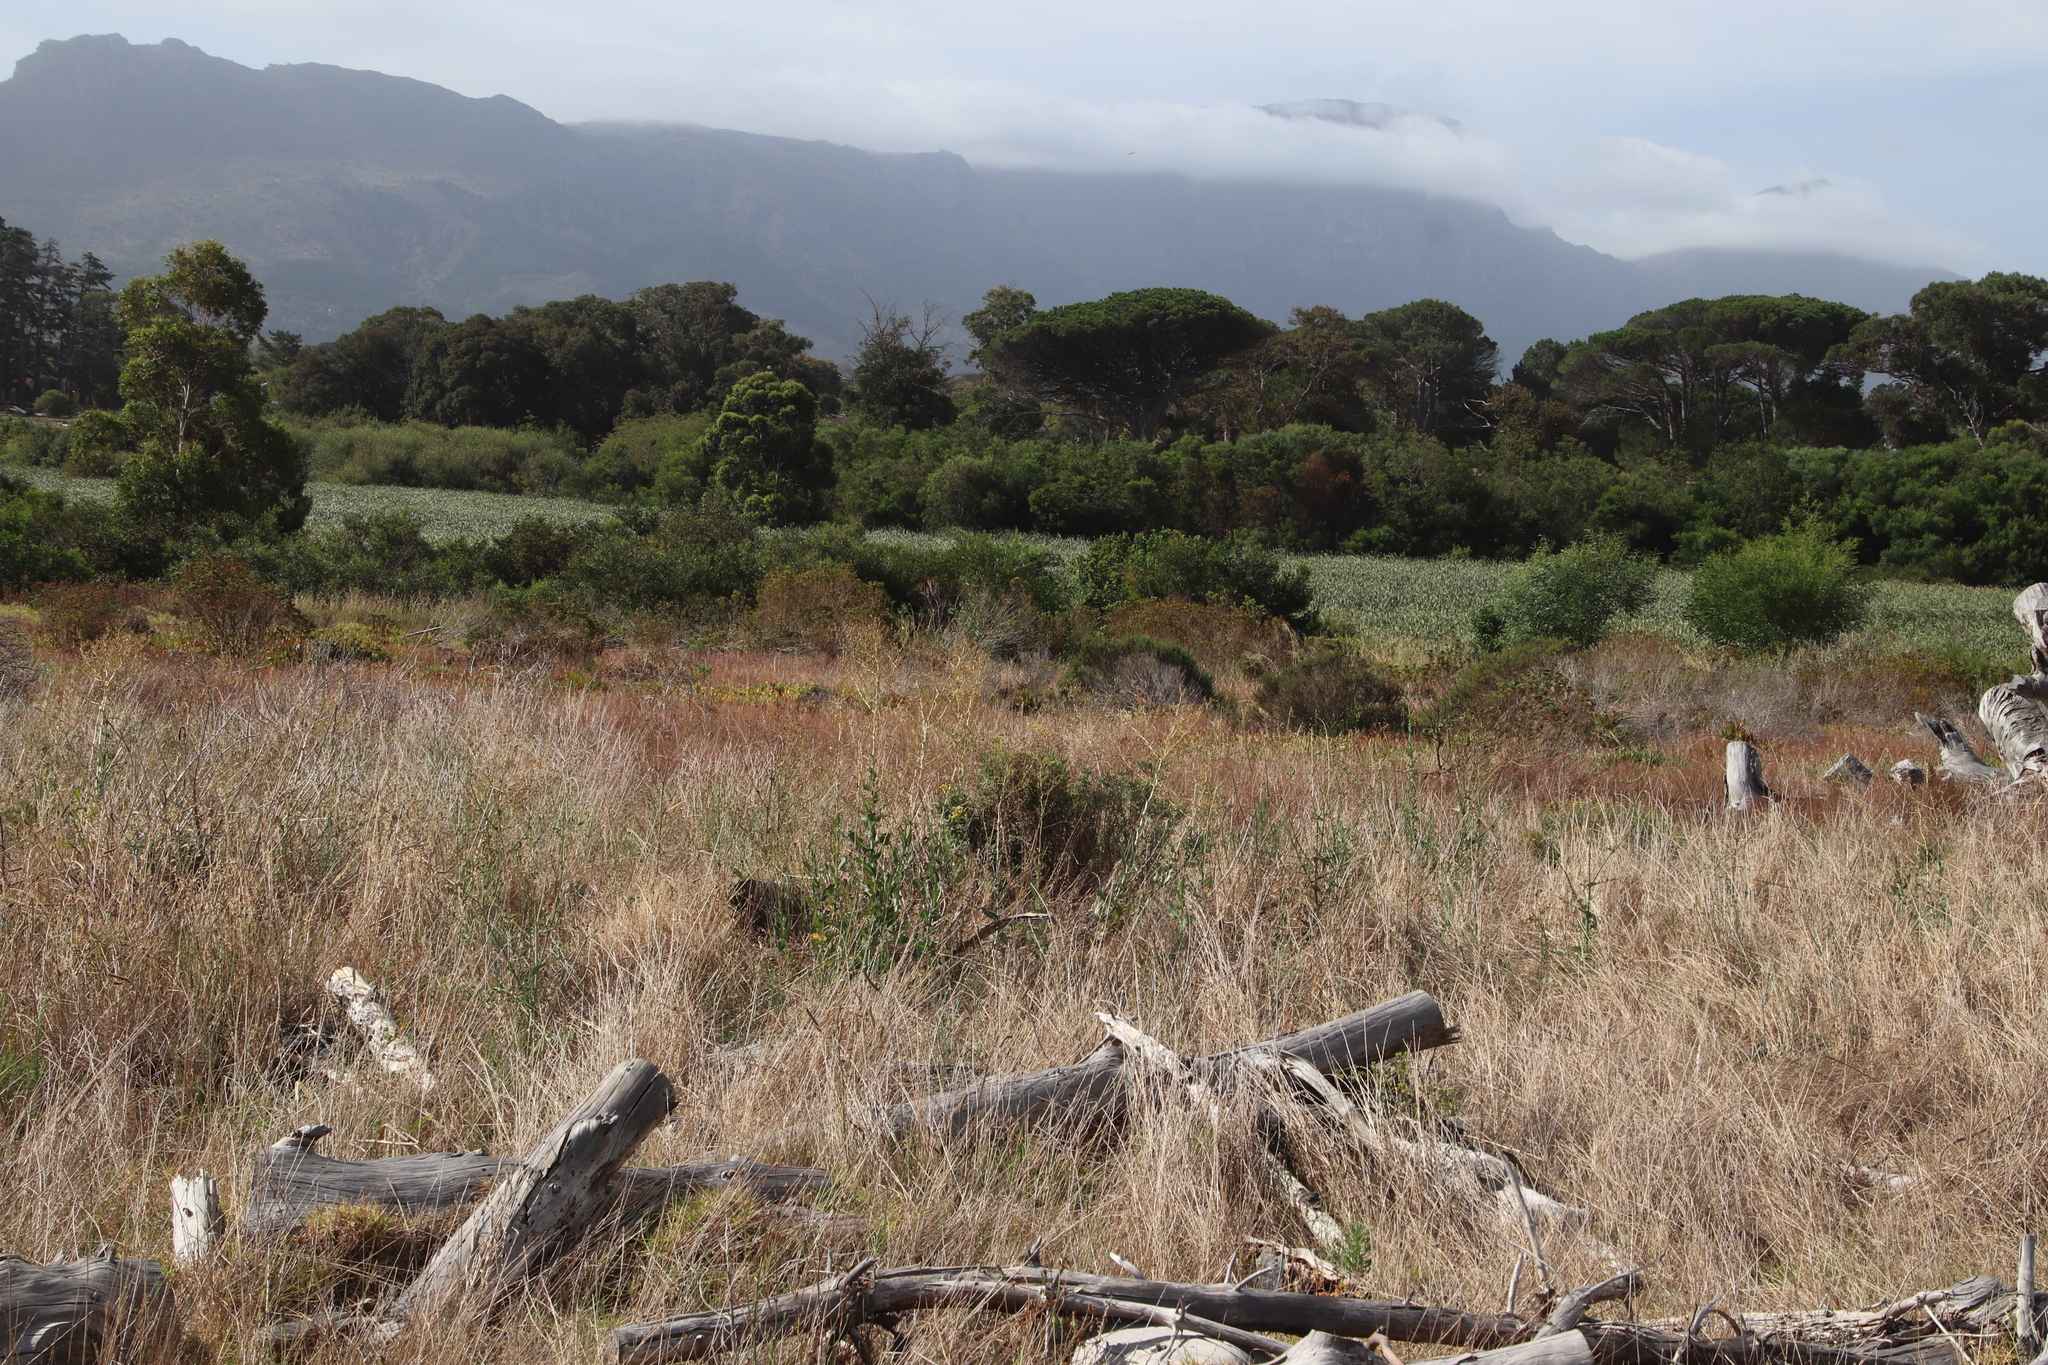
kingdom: Plantae
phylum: Tracheophyta
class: Magnoliopsida
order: Asterales
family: Asteraceae
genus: Lactuca
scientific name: Lactuca serriola
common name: Prickly lettuce
